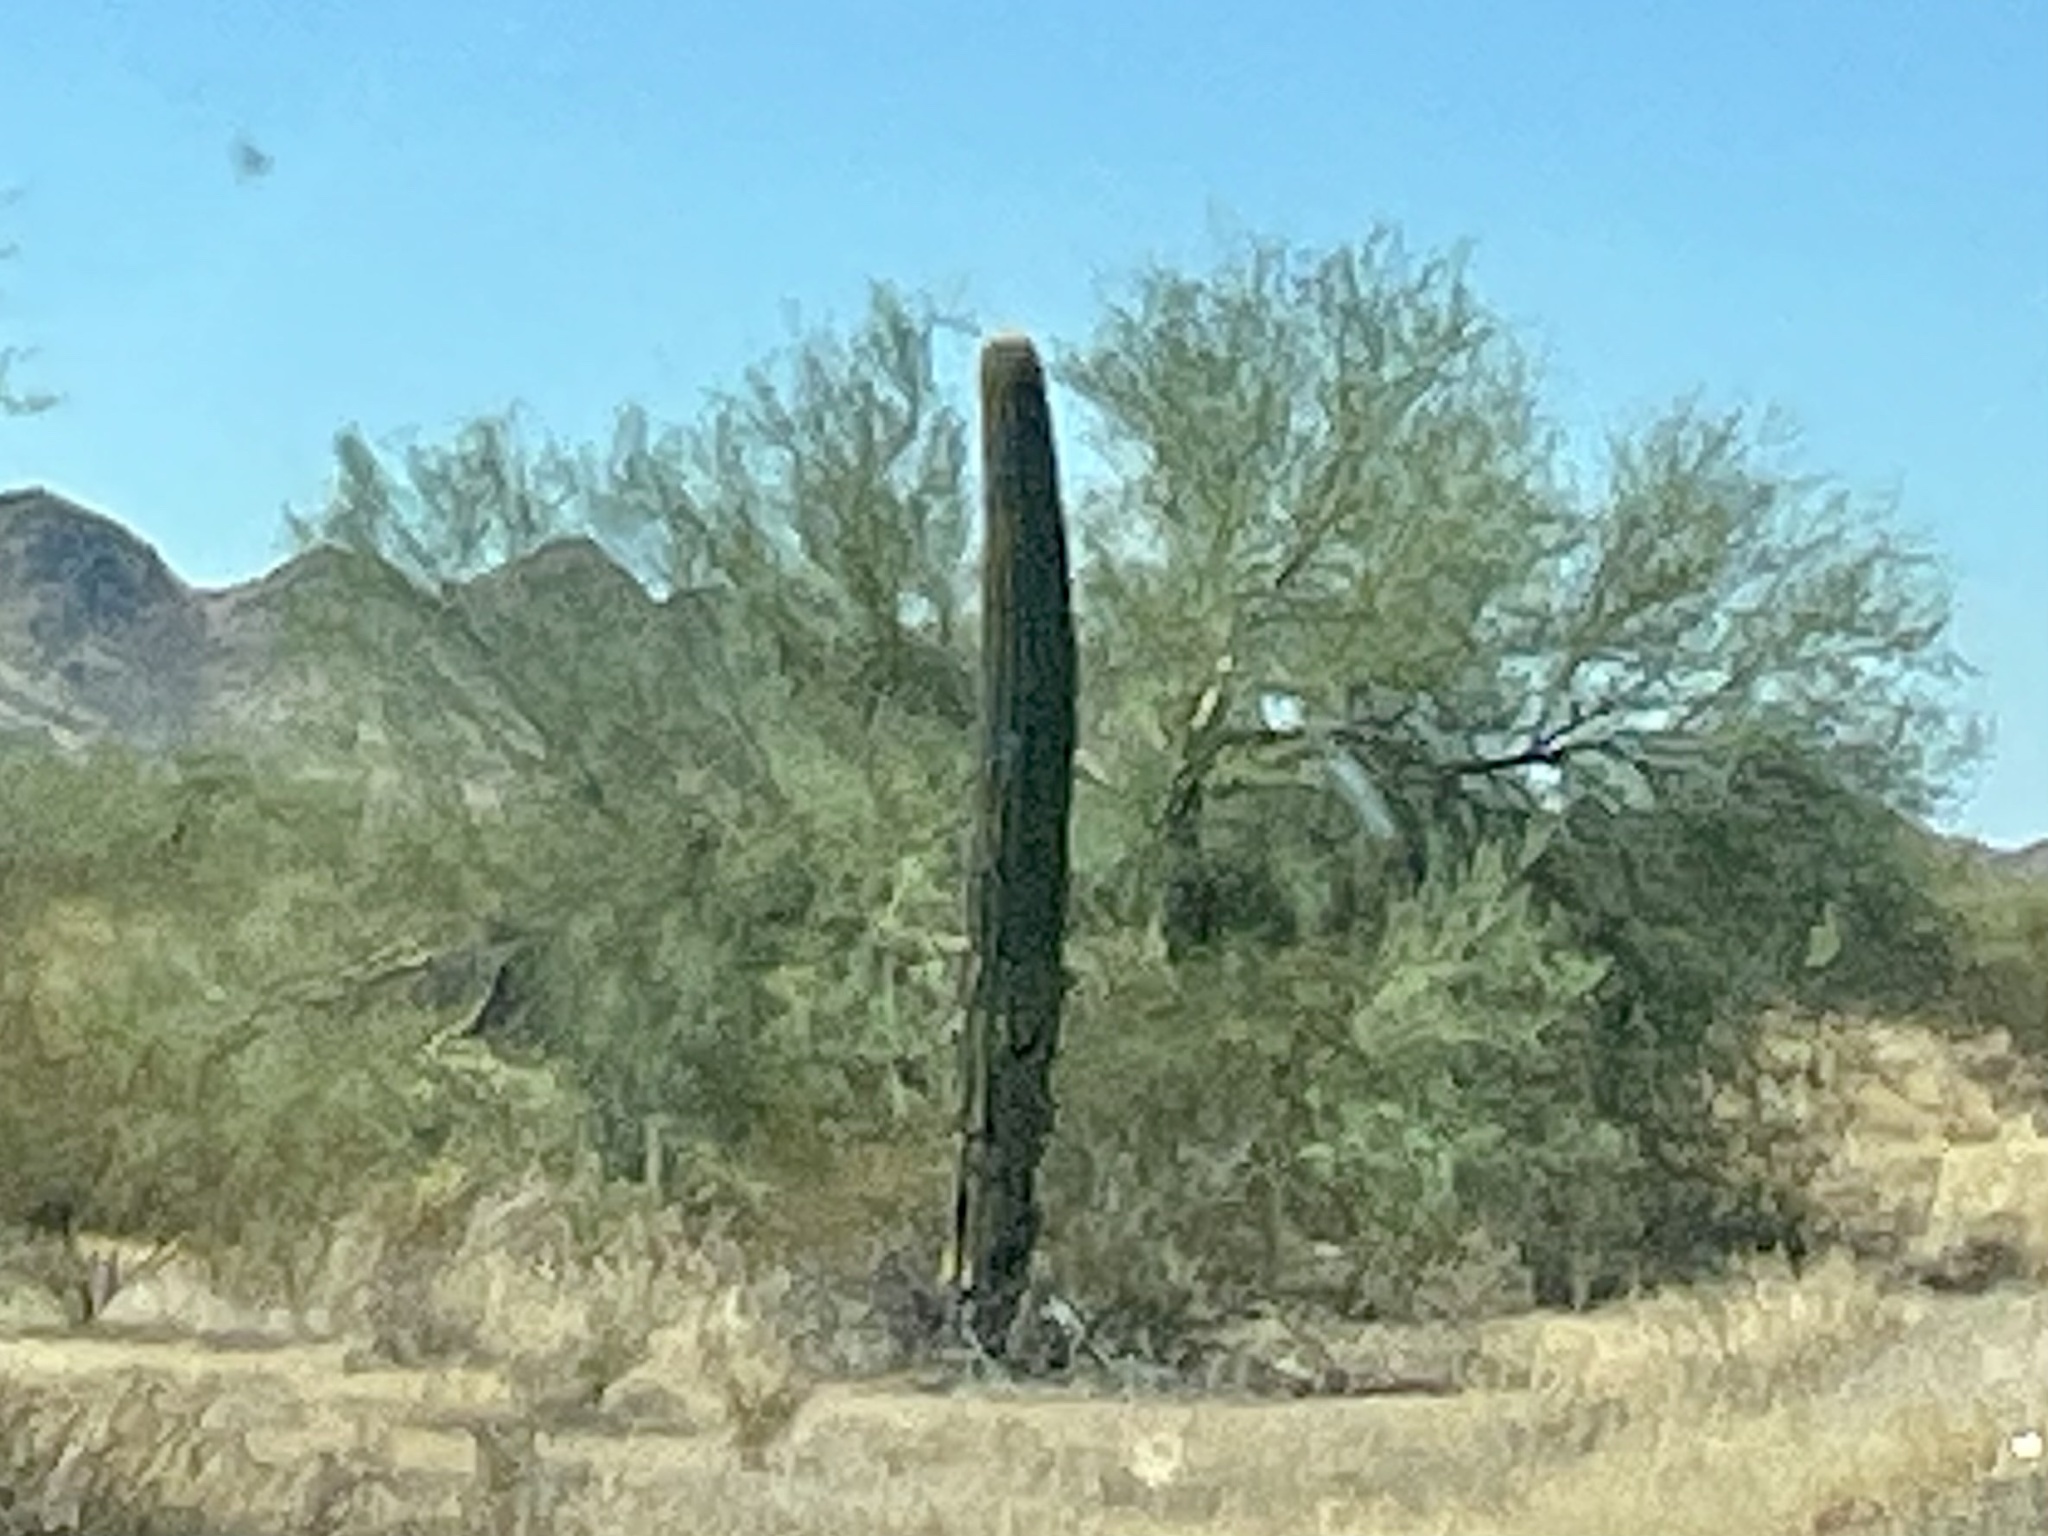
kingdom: Plantae
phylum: Tracheophyta
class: Magnoliopsida
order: Caryophyllales
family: Cactaceae
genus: Carnegiea
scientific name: Carnegiea gigantea
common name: Saguaro
